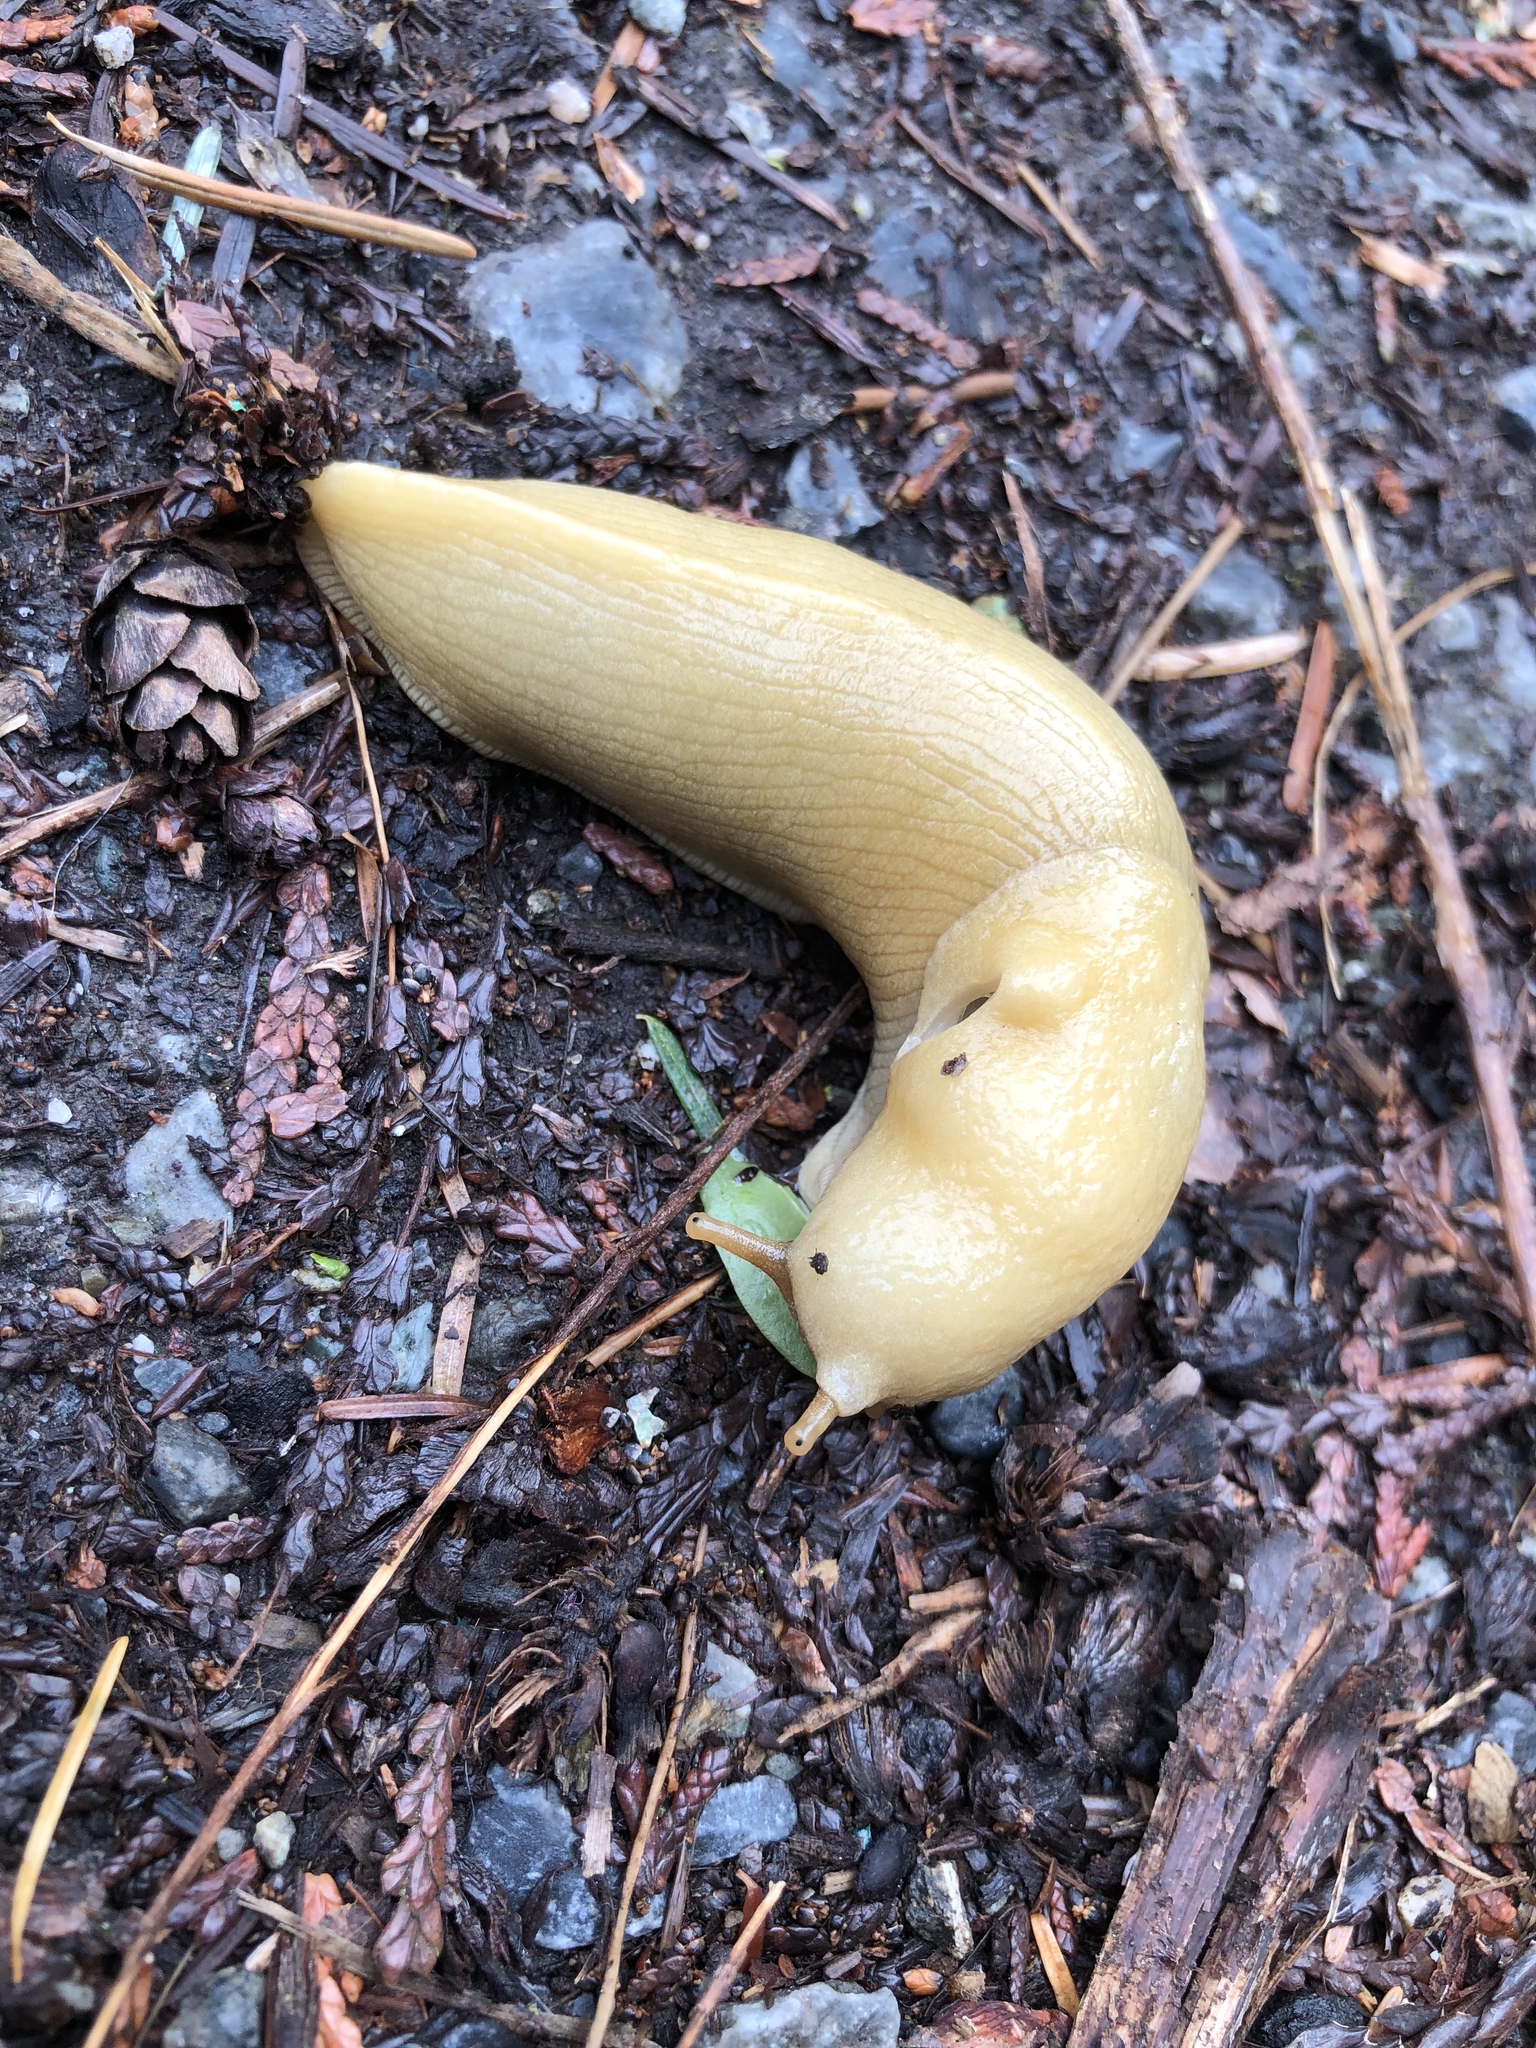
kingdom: Animalia
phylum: Mollusca
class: Gastropoda
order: Stylommatophora
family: Ariolimacidae
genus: Ariolimax
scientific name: Ariolimax columbianus
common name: Pacific banana slug
